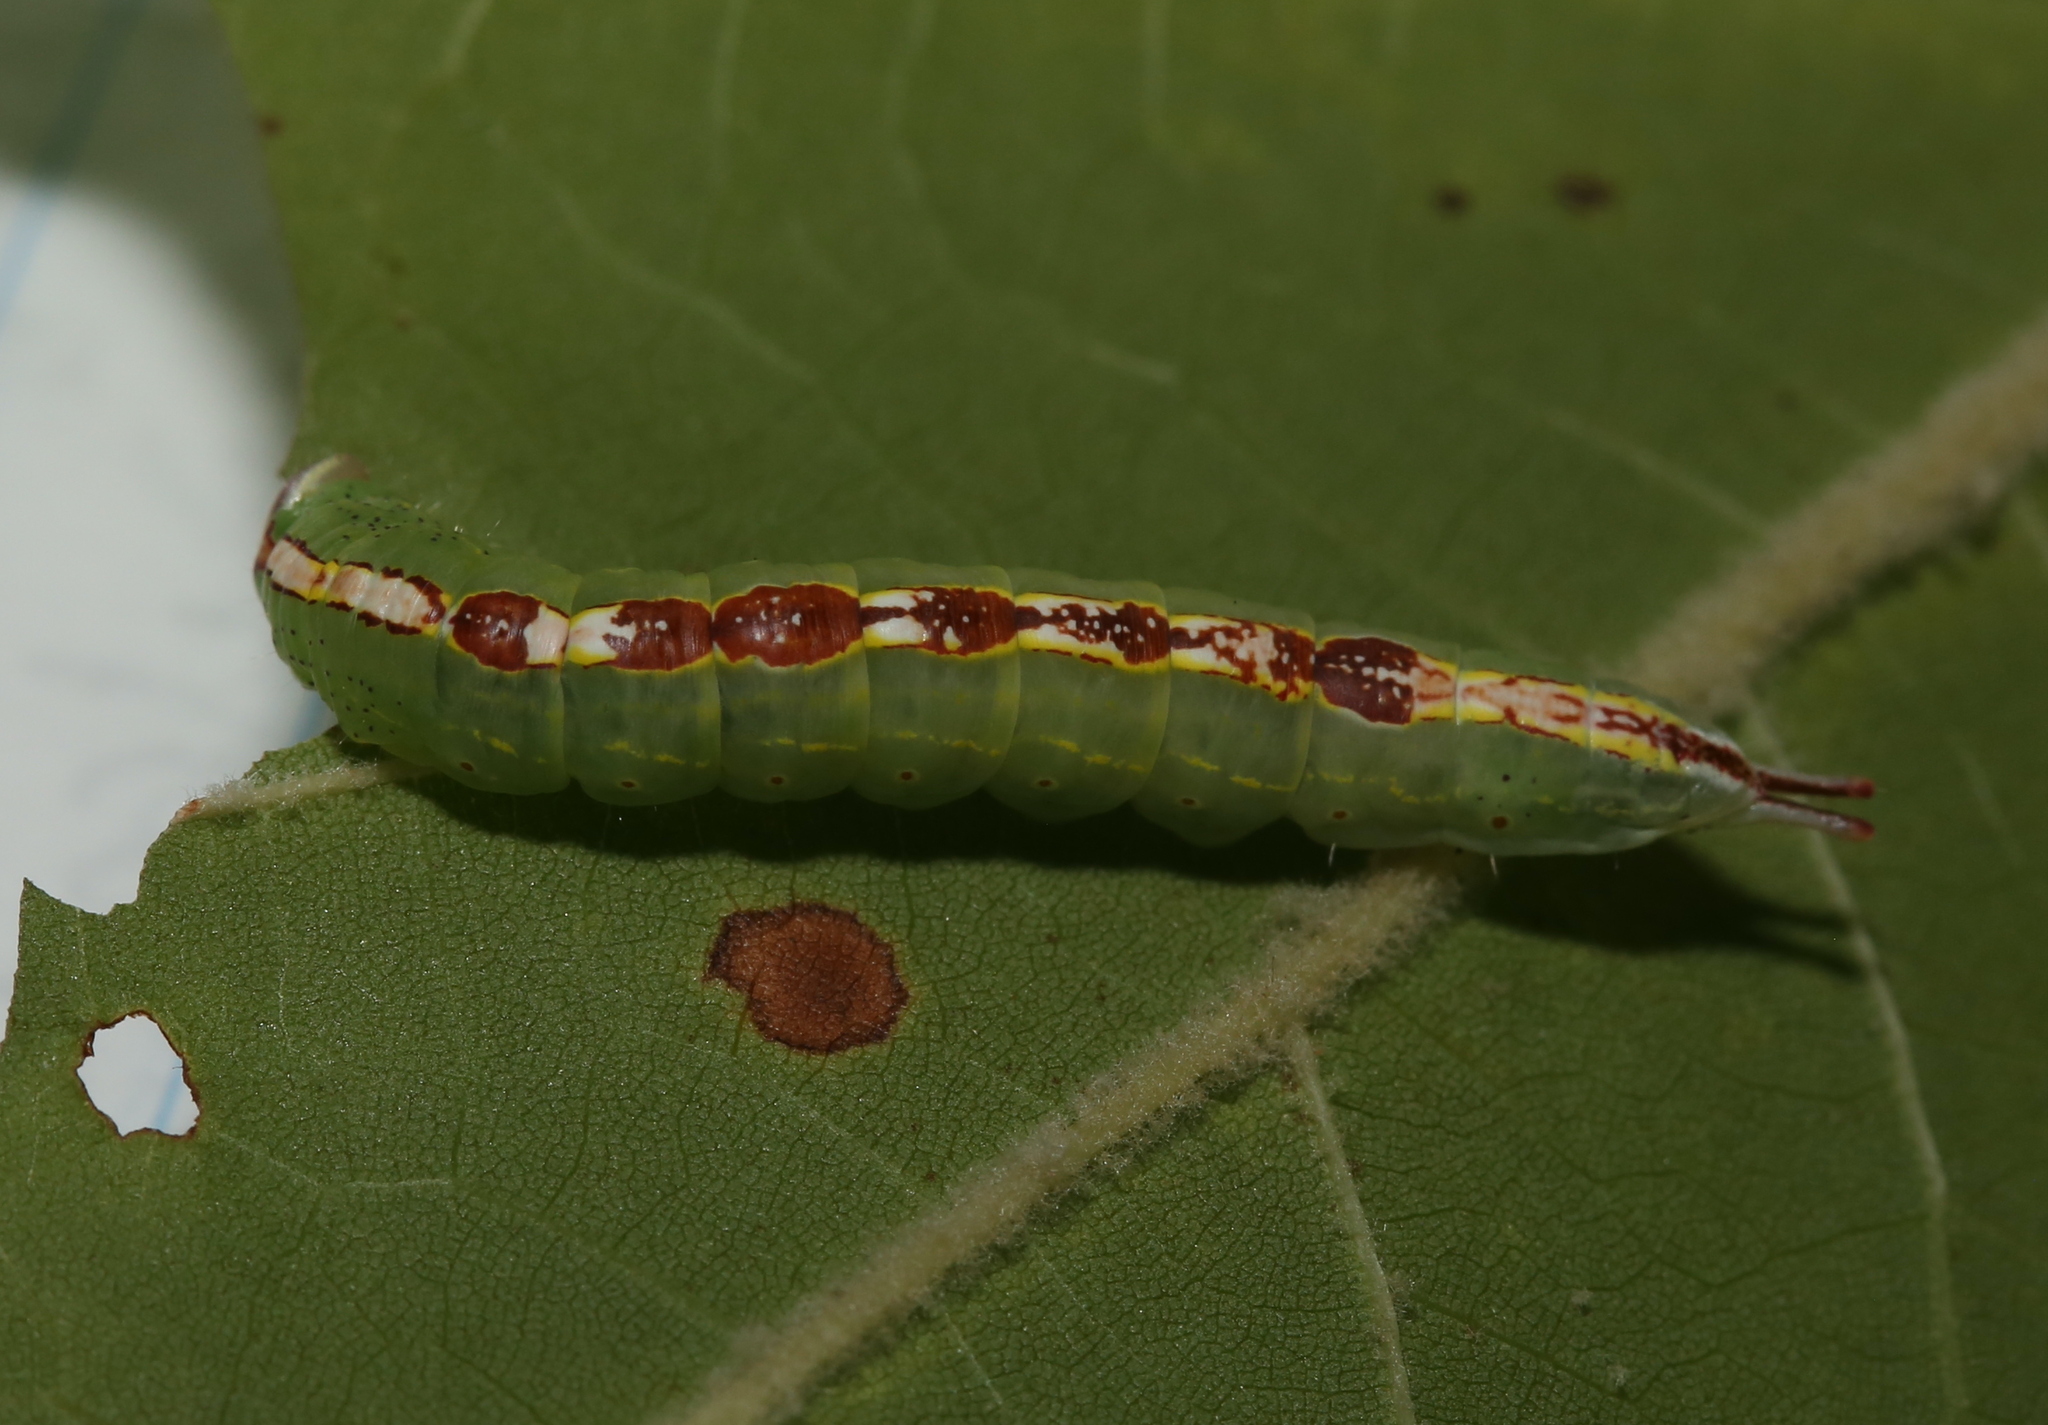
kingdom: Animalia
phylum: Arthropoda
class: Insecta
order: Lepidoptera
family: Notodontidae
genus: Misogada
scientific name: Misogada unicolor
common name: Drab prominent
